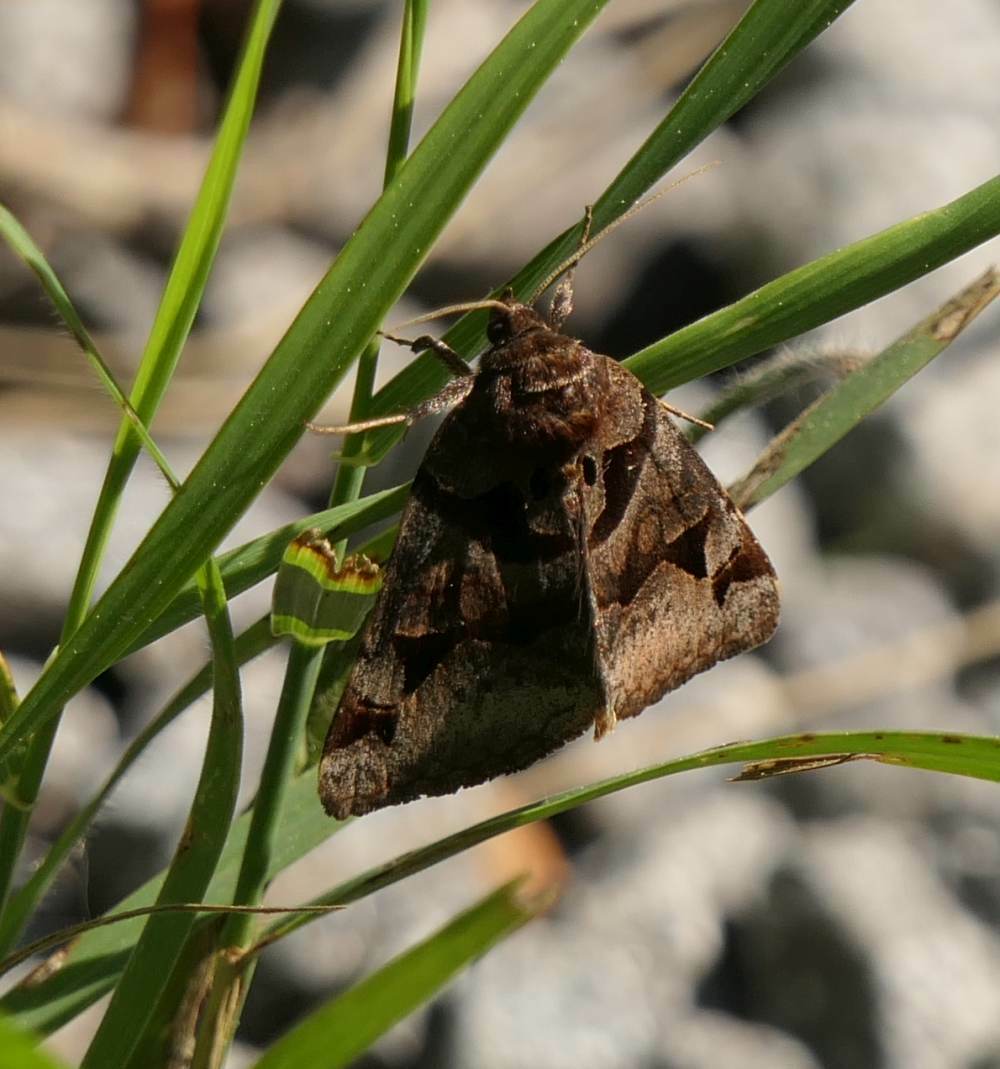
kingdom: Animalia
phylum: Arthropoda
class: Insecta
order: Lepidoptera
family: Erebidae
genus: Euclidia
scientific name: Euclidia cuspidea
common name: Toothed somberwing
